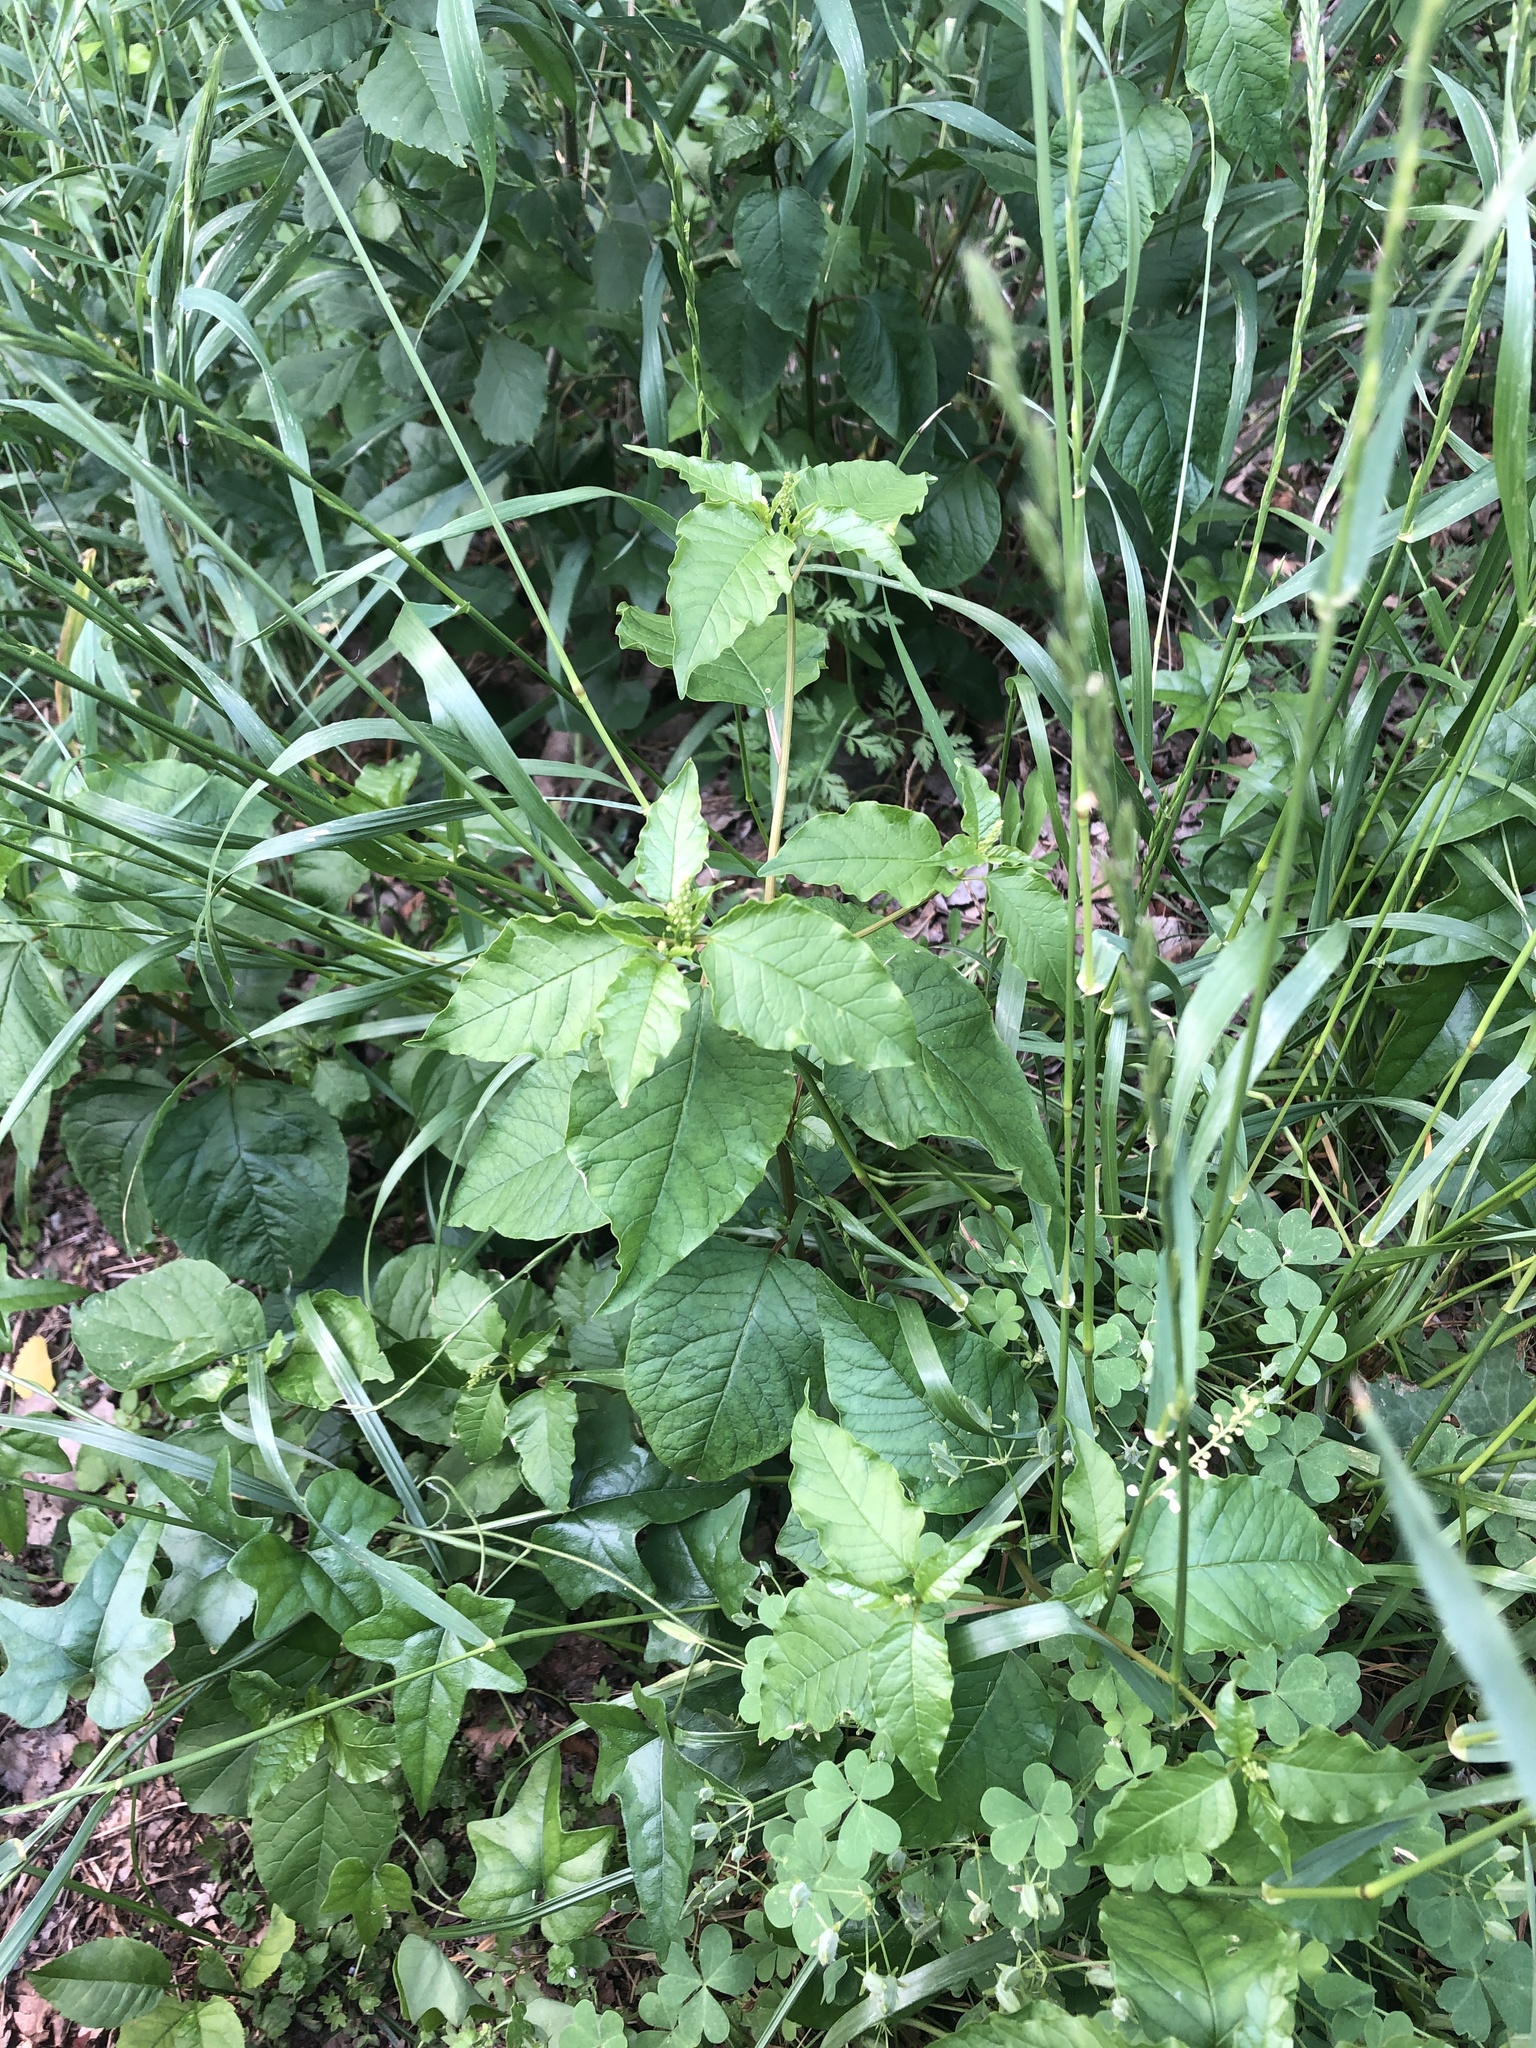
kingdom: Plantae
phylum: Tracheophyta
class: Magnoliopsida
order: Caryophyllales
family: Phytolaccaceae
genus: Rivina
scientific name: Rivina humilis
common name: Rougeplant
